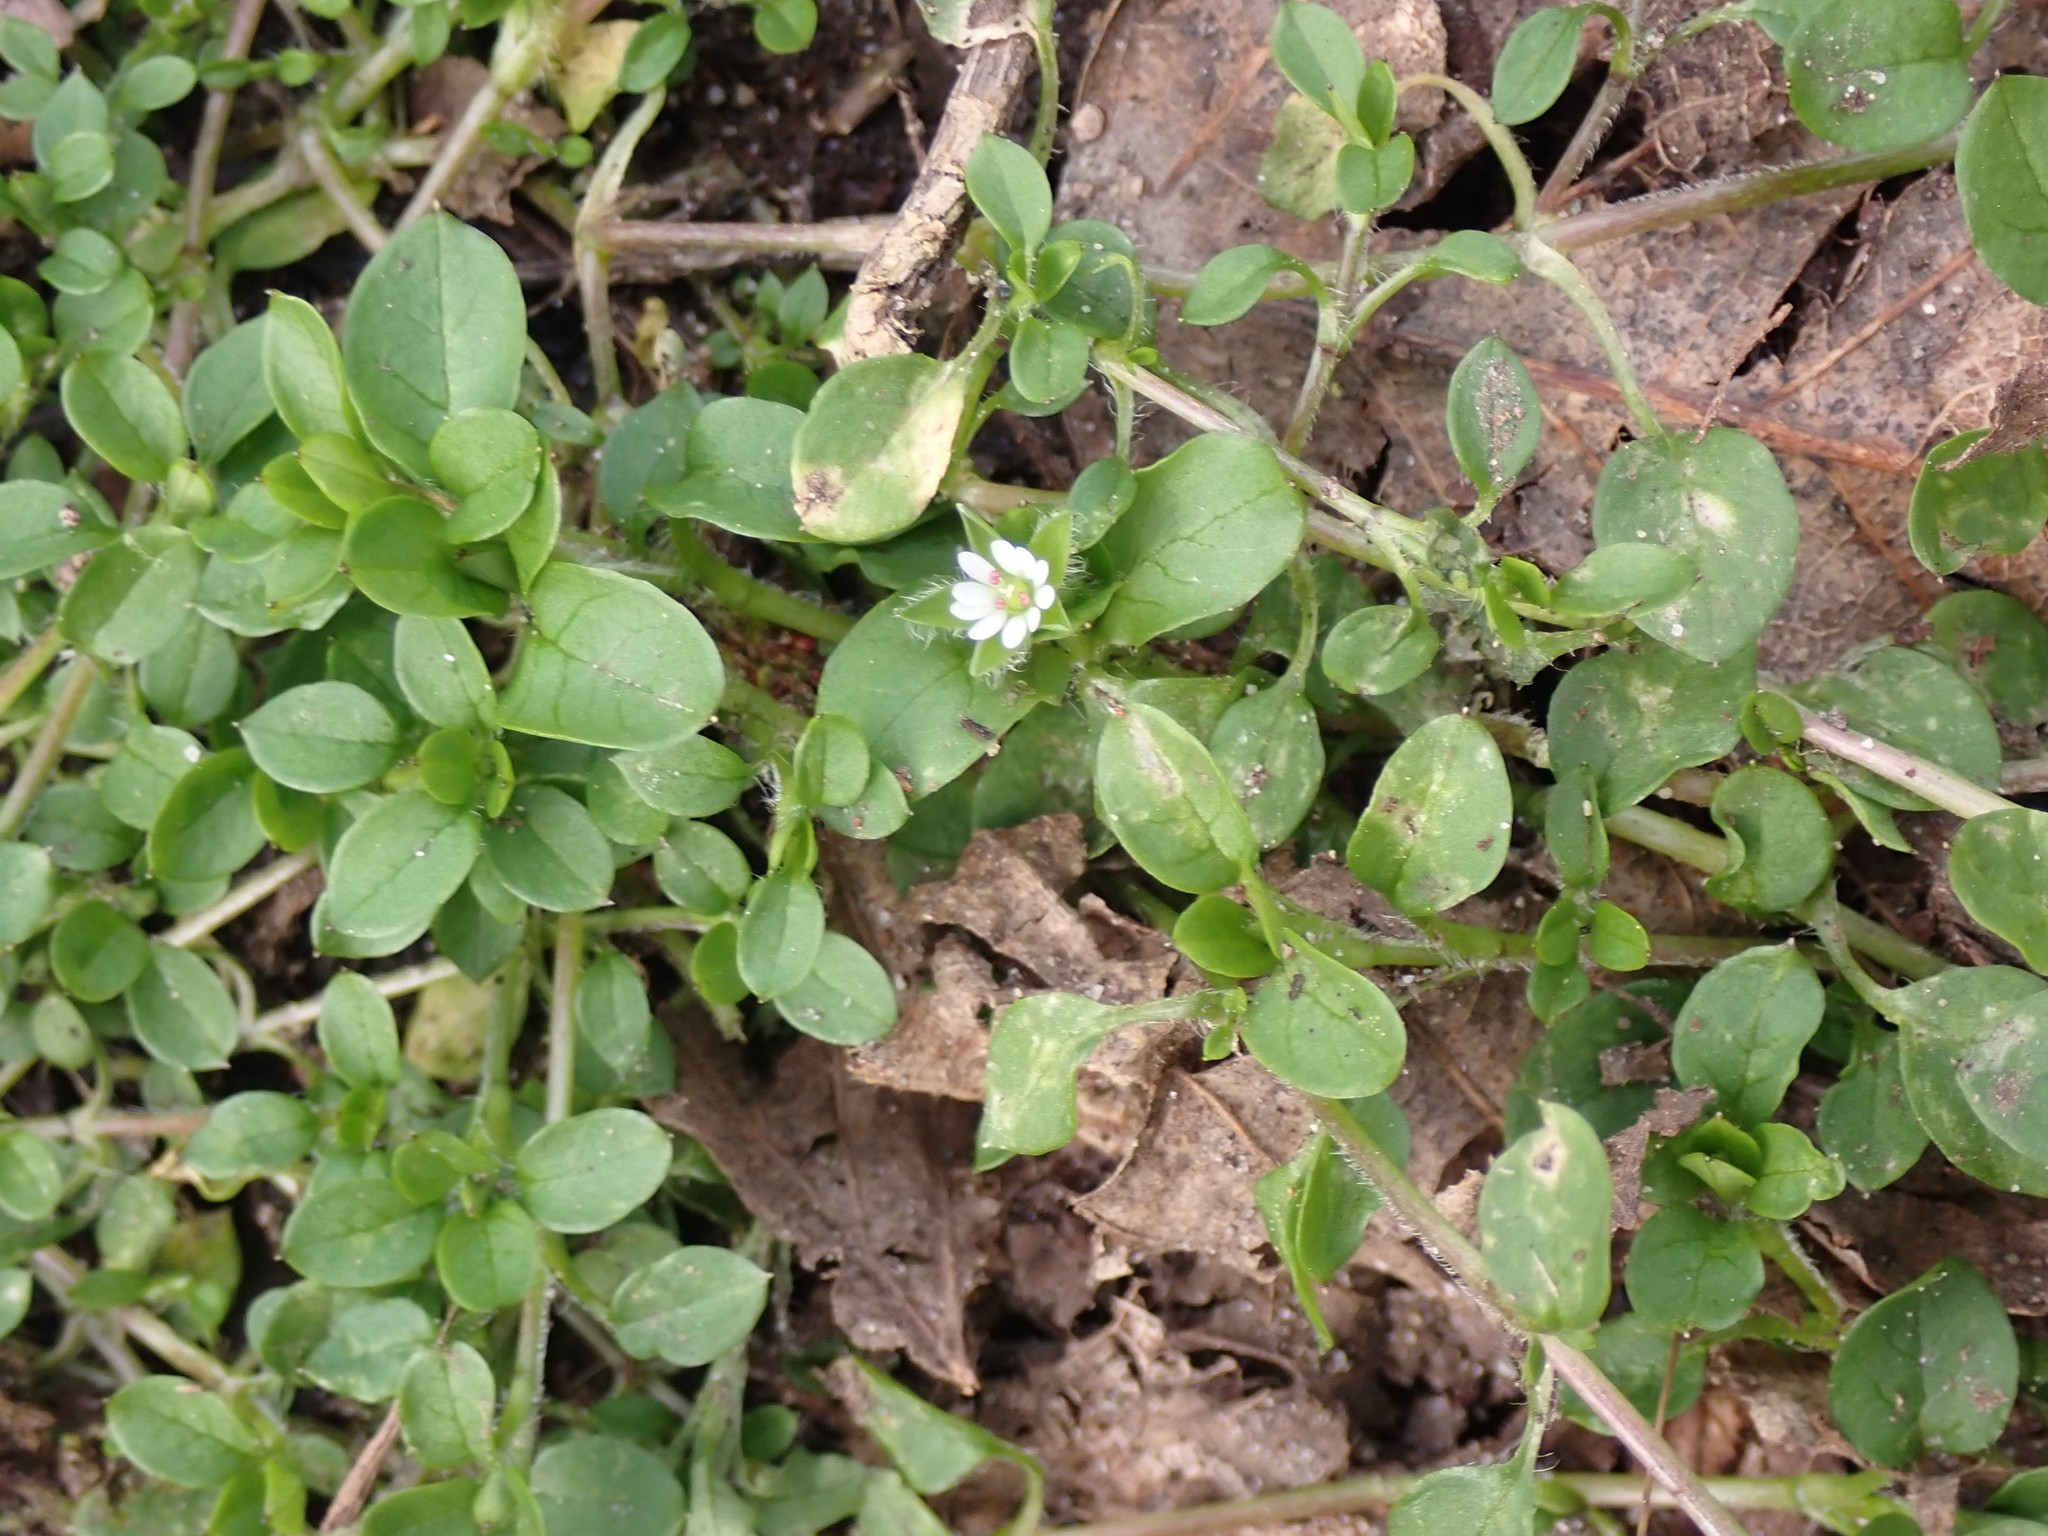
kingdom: Plantae
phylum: Tracheophyta
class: Magnoliopsida
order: Caryophyllales
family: Caryophyllaceae
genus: Stellaria
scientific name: Stellaria media
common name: Common chickweed
